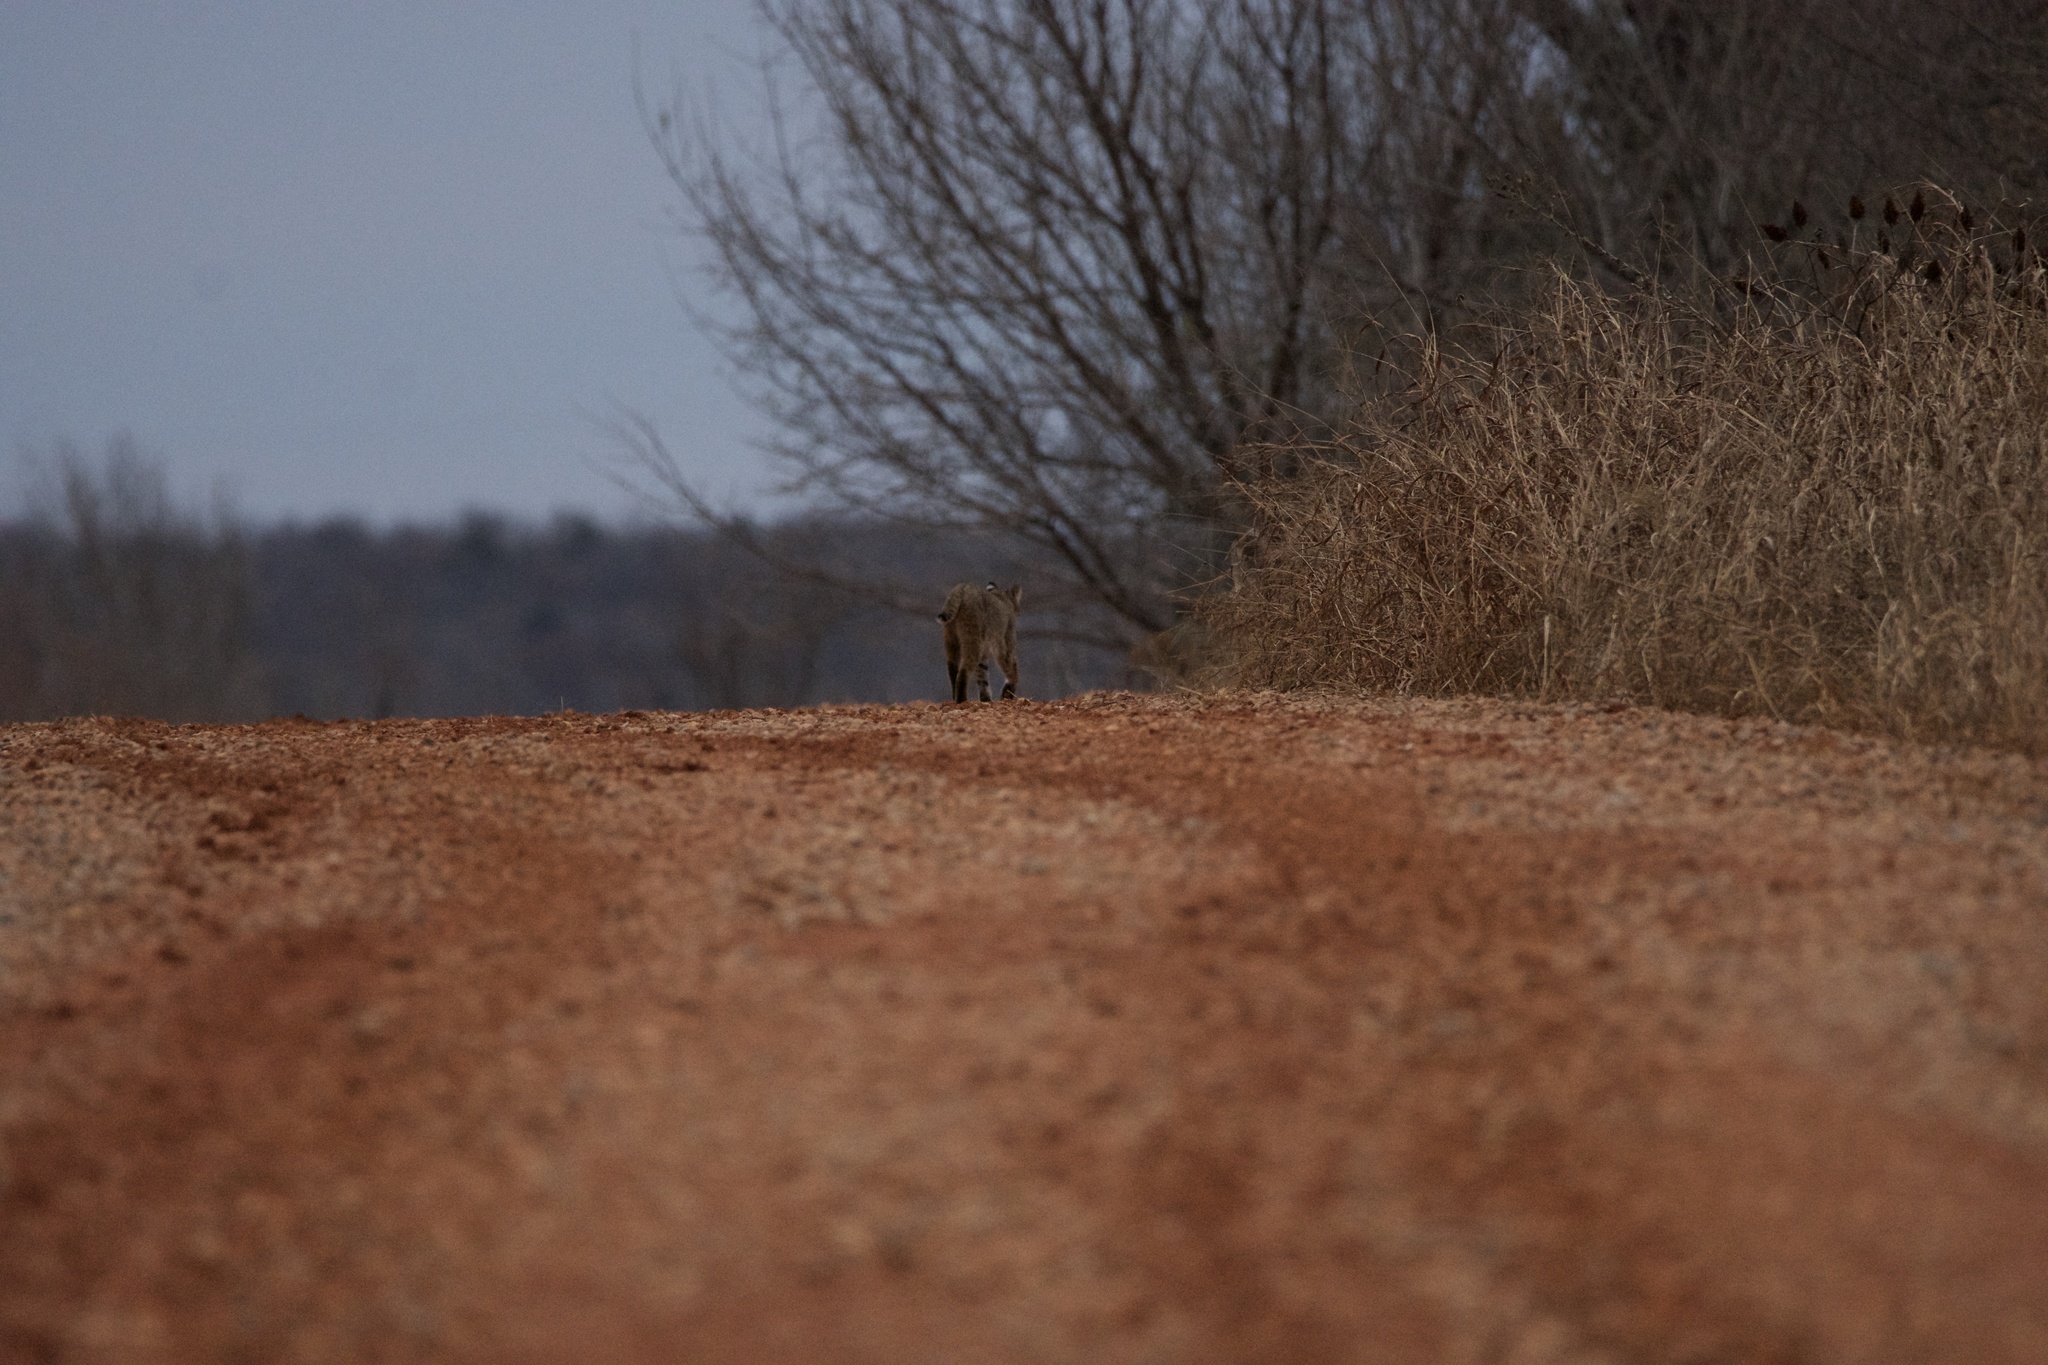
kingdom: Animalia
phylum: Chordata
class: Mammalia
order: Carnivora
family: Felidae
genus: Lynx
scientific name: Lynx rufus
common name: Bobcat
